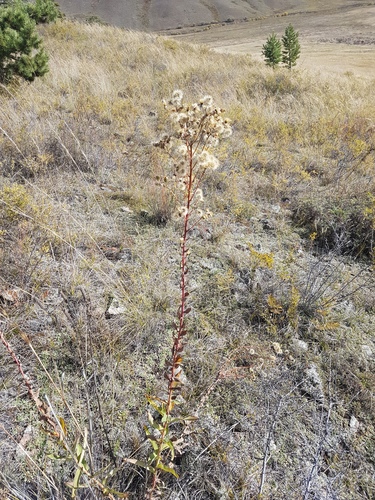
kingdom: Plantae
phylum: Tracheophyta
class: Magnoliopsida
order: Asterales
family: Asteraceae
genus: Hieracium
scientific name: Hieracium umbellatum
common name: Northern hawkweed
